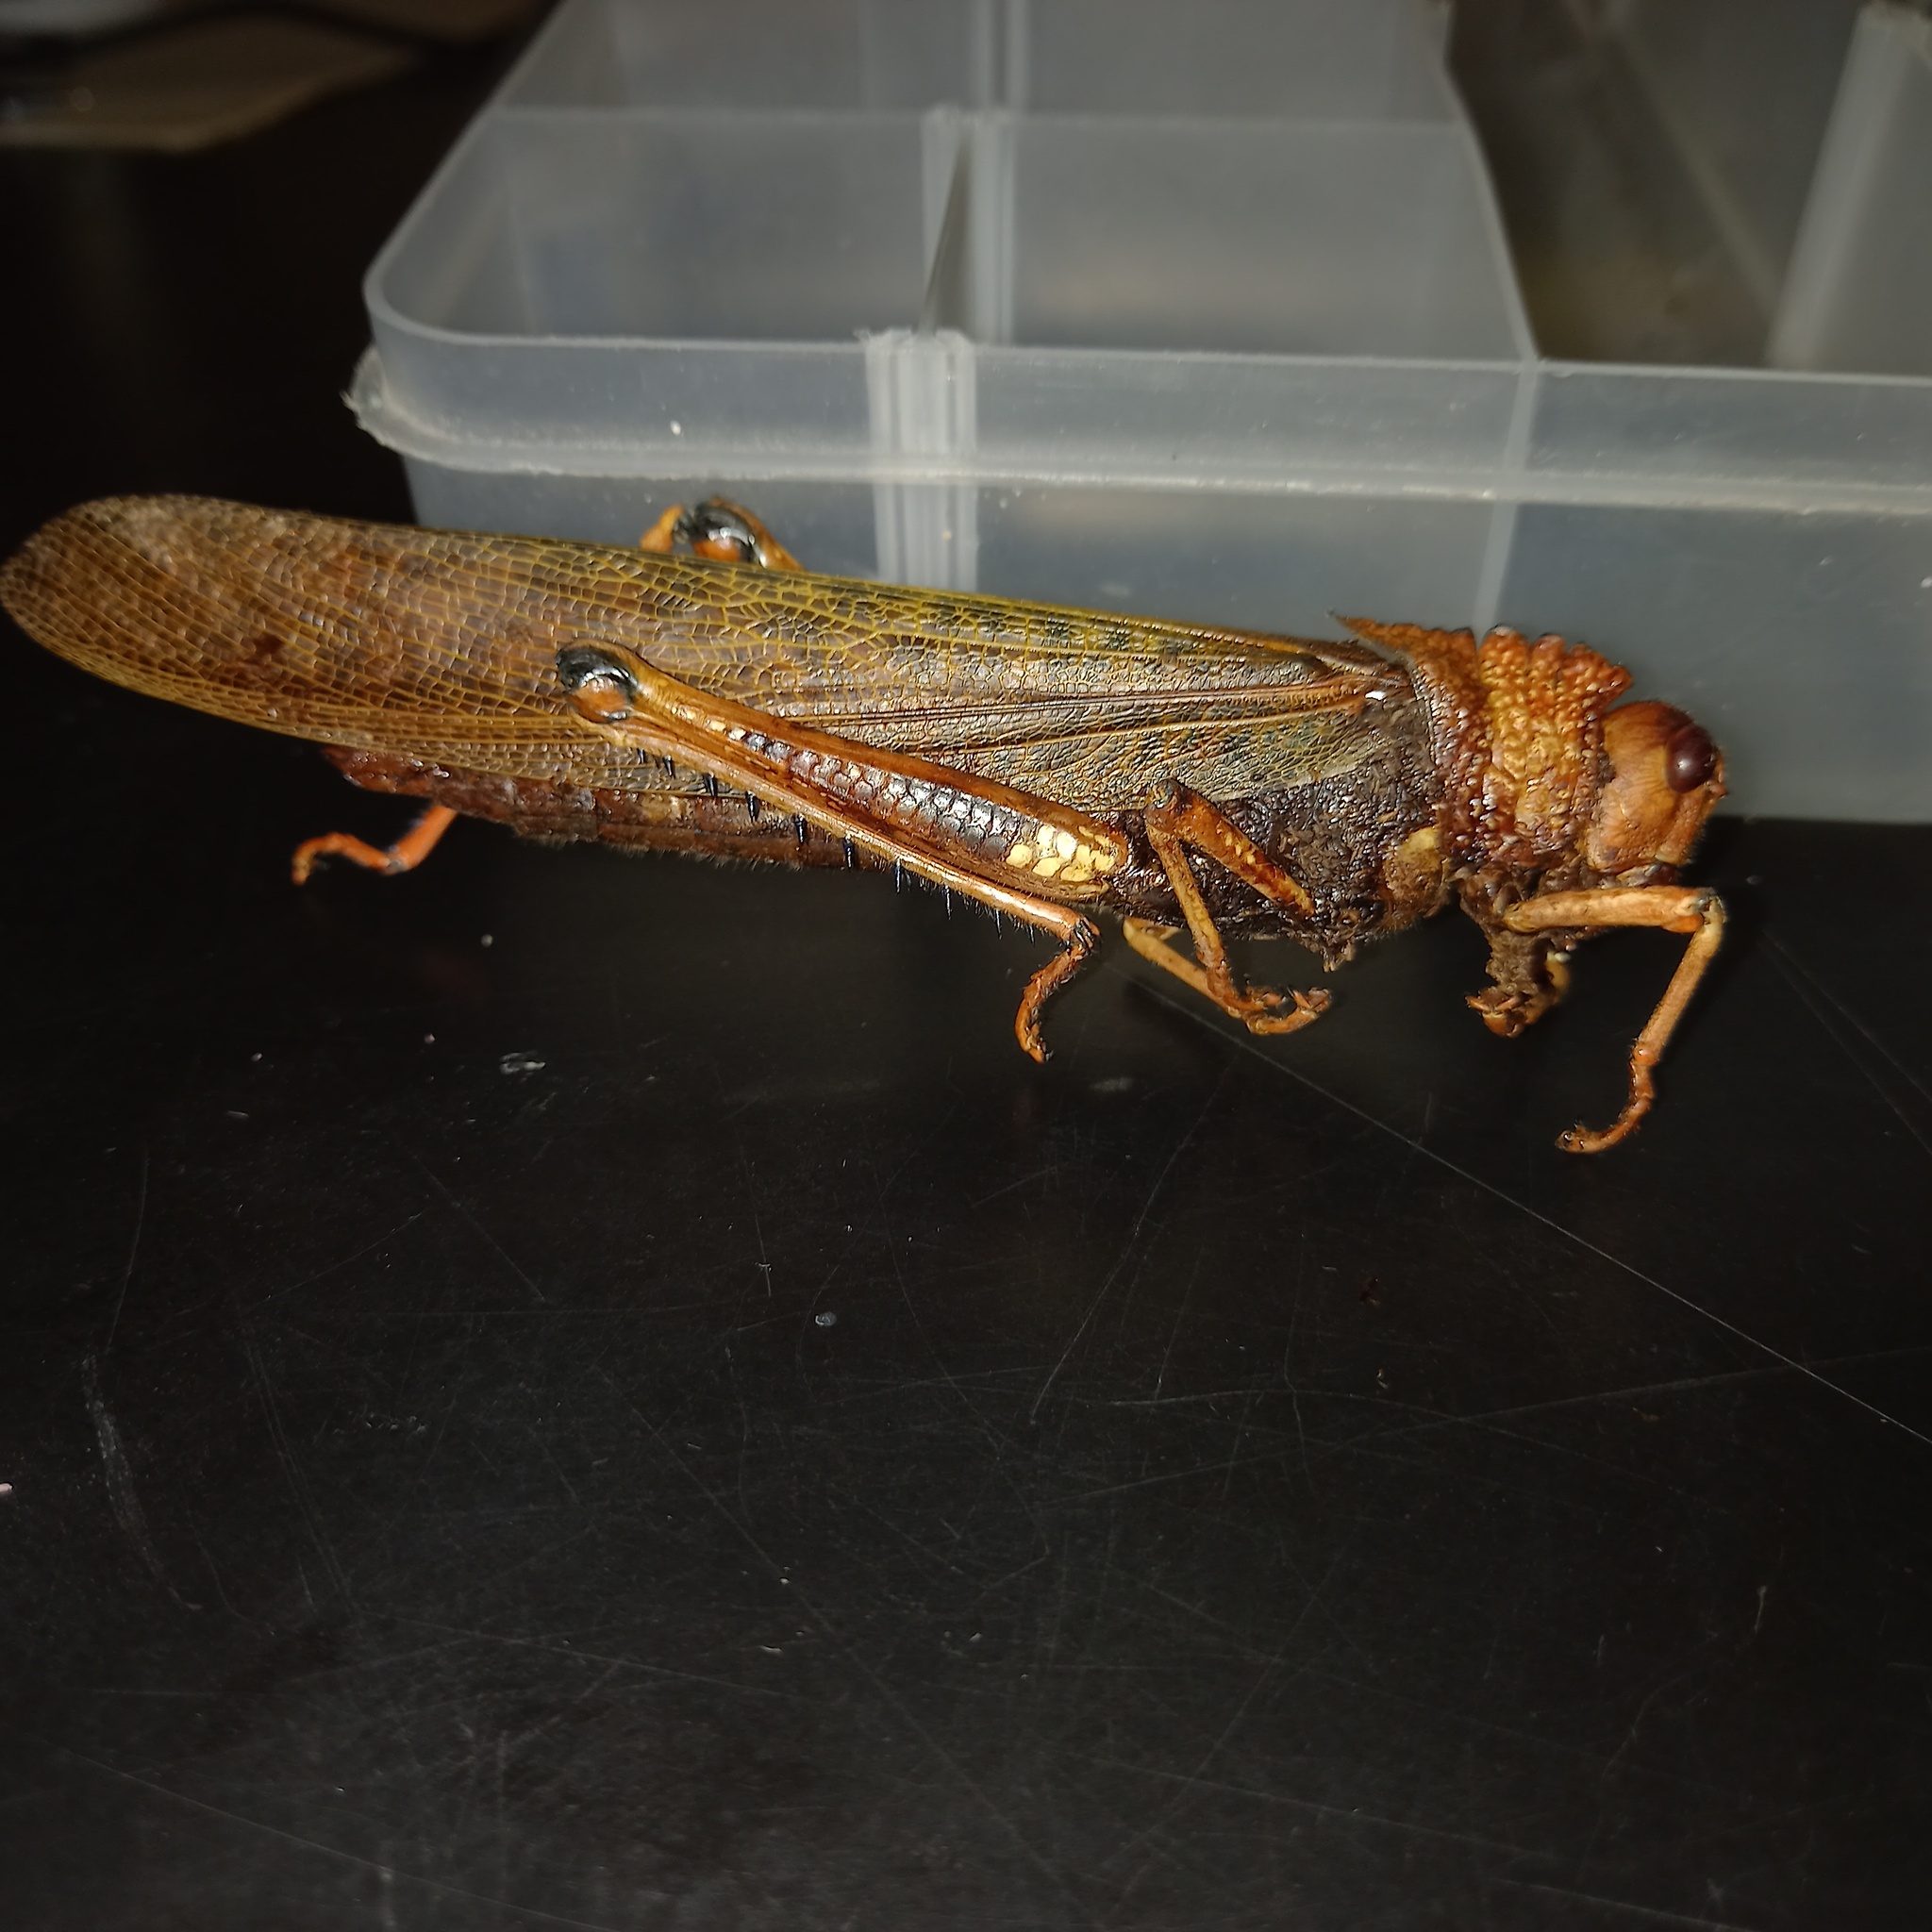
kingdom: Animalia
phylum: Arthropoda
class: Insecta
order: Orthoptera
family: Romaleidae
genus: Tropidacris
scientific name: Tropidacris cristata
